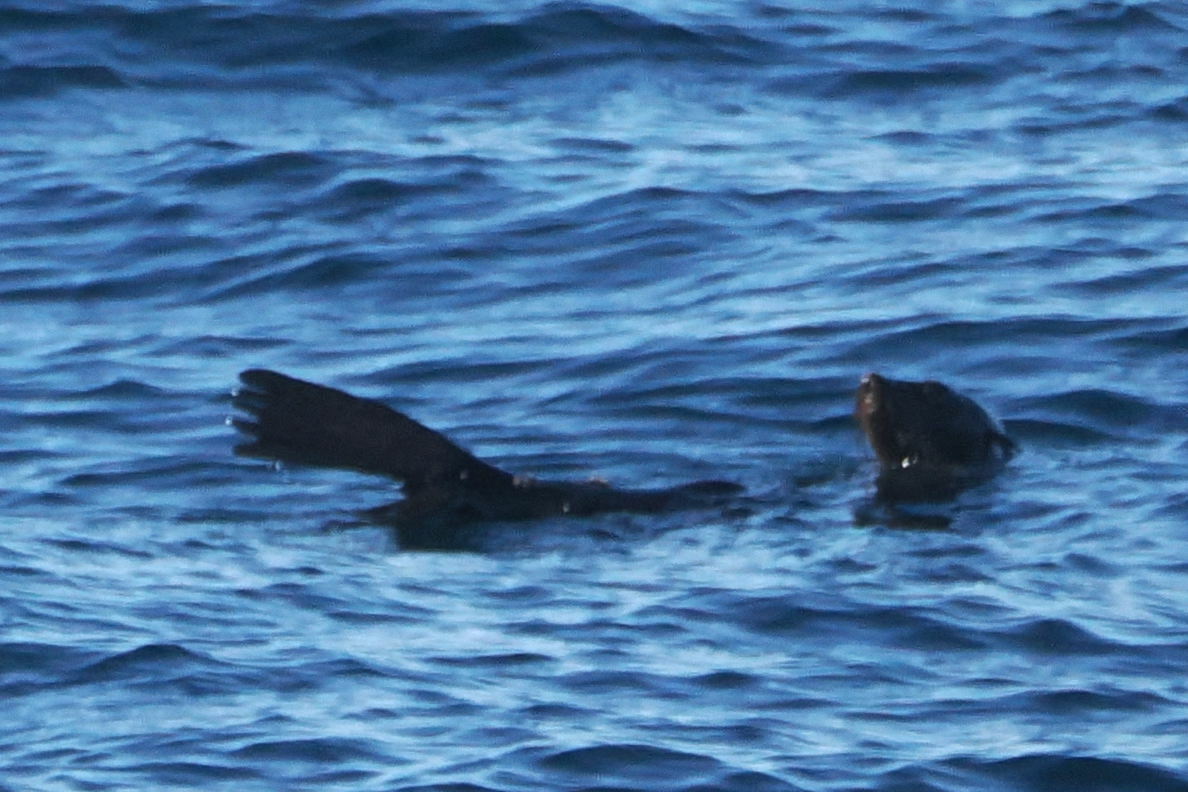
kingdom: Animalia
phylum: Chordata
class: Mammalia
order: Carnivora
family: Otariidae
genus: Arctocephalus
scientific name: Arctocephalus philippii
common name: Juan fernández fur seal
